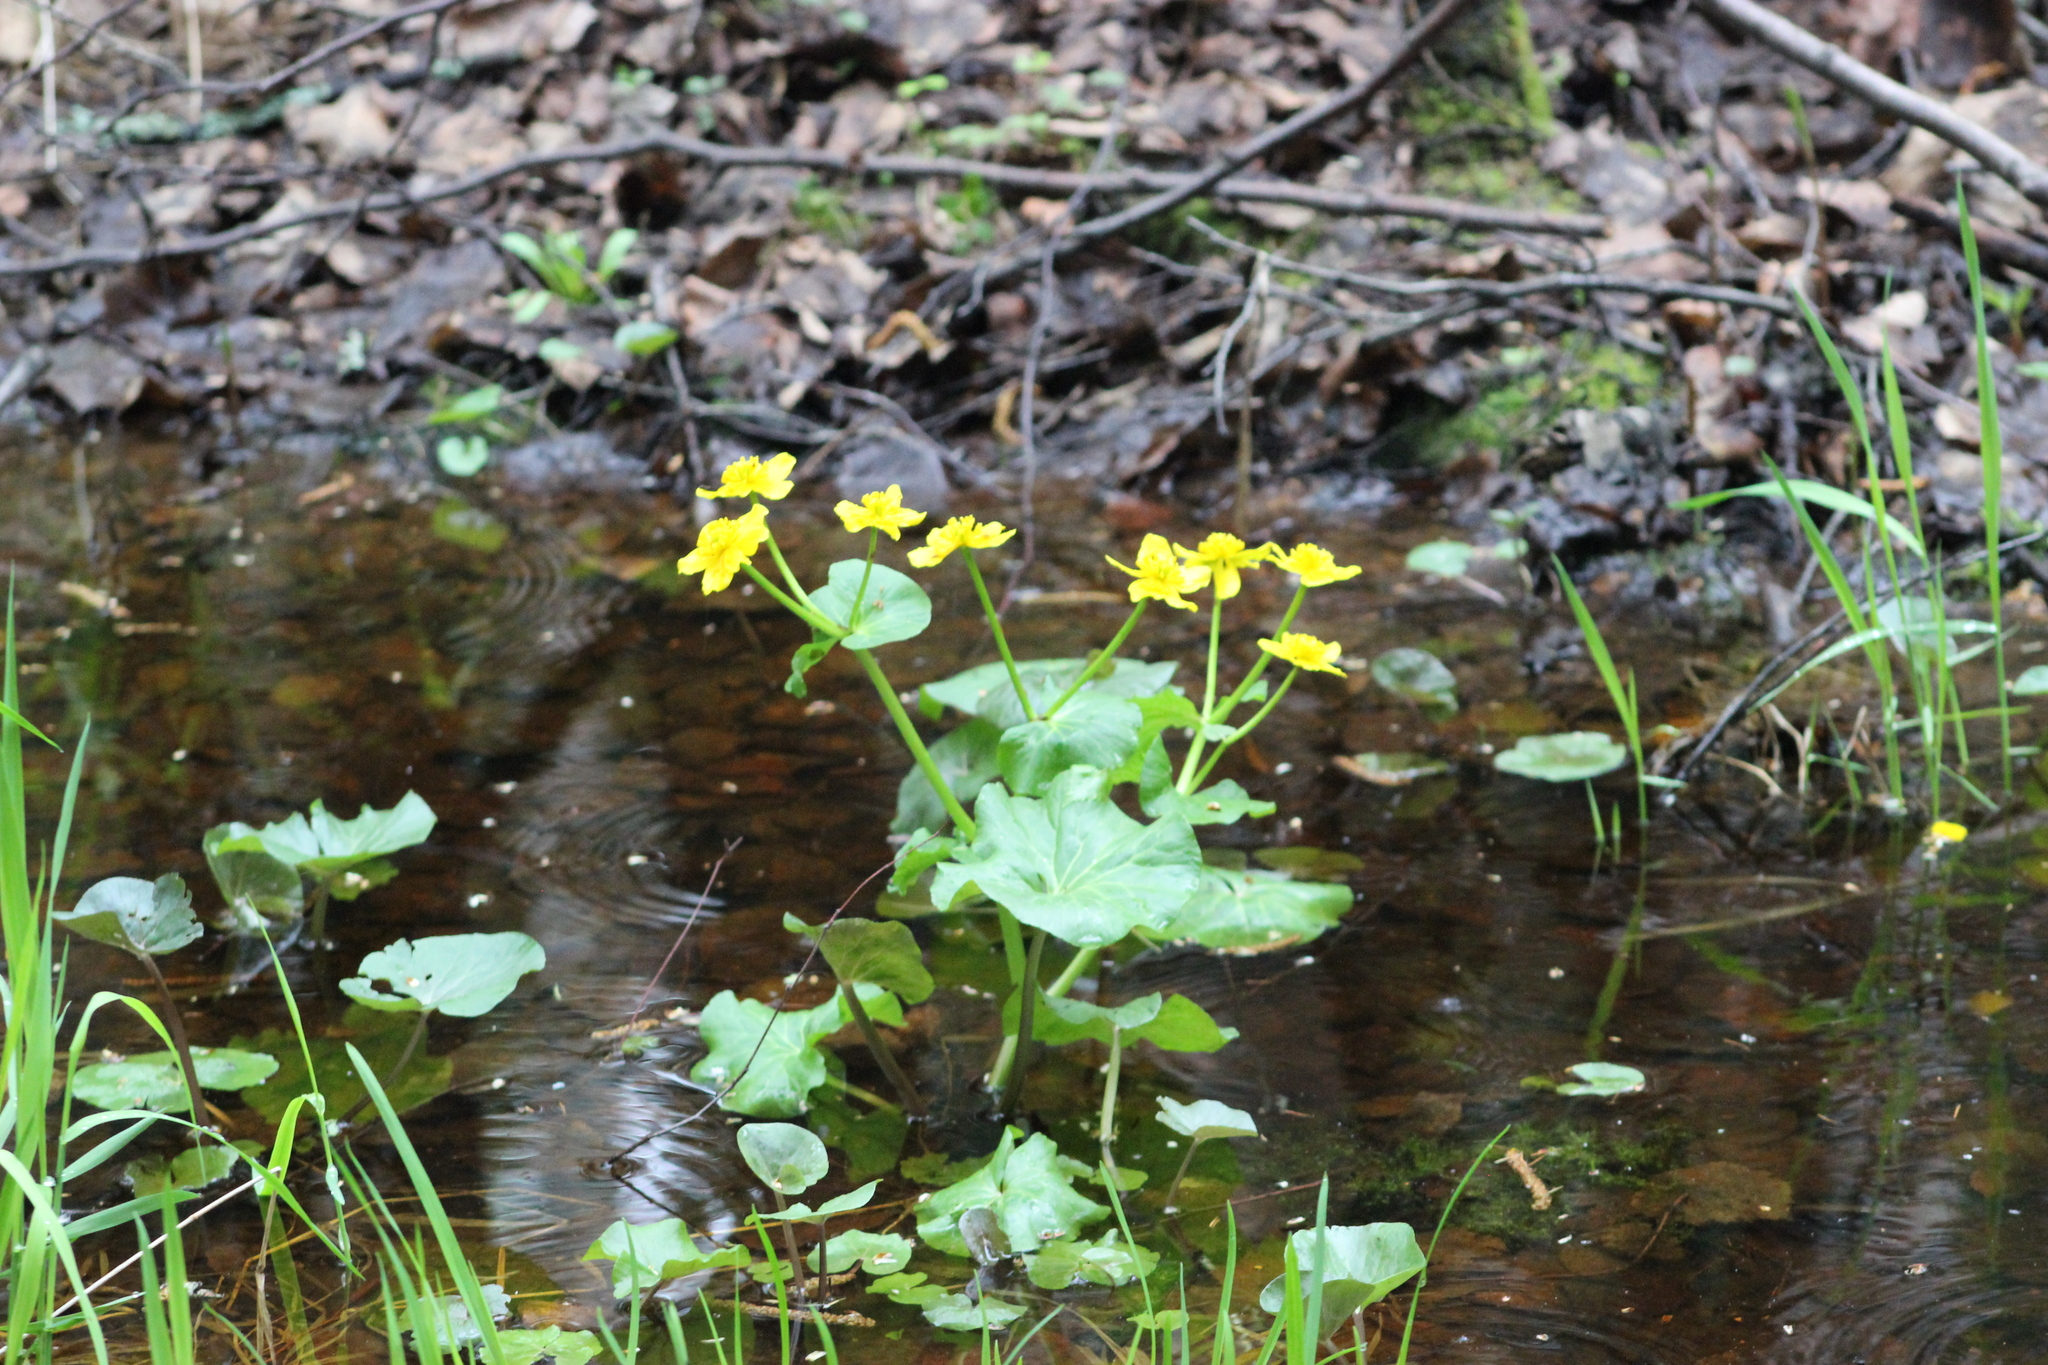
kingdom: Plantae
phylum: Tracheophyta
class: Magnoliopsida
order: Ranunculales
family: Ranunculaceae
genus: Caltha
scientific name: Caltha palustris
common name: Marsh marigold
